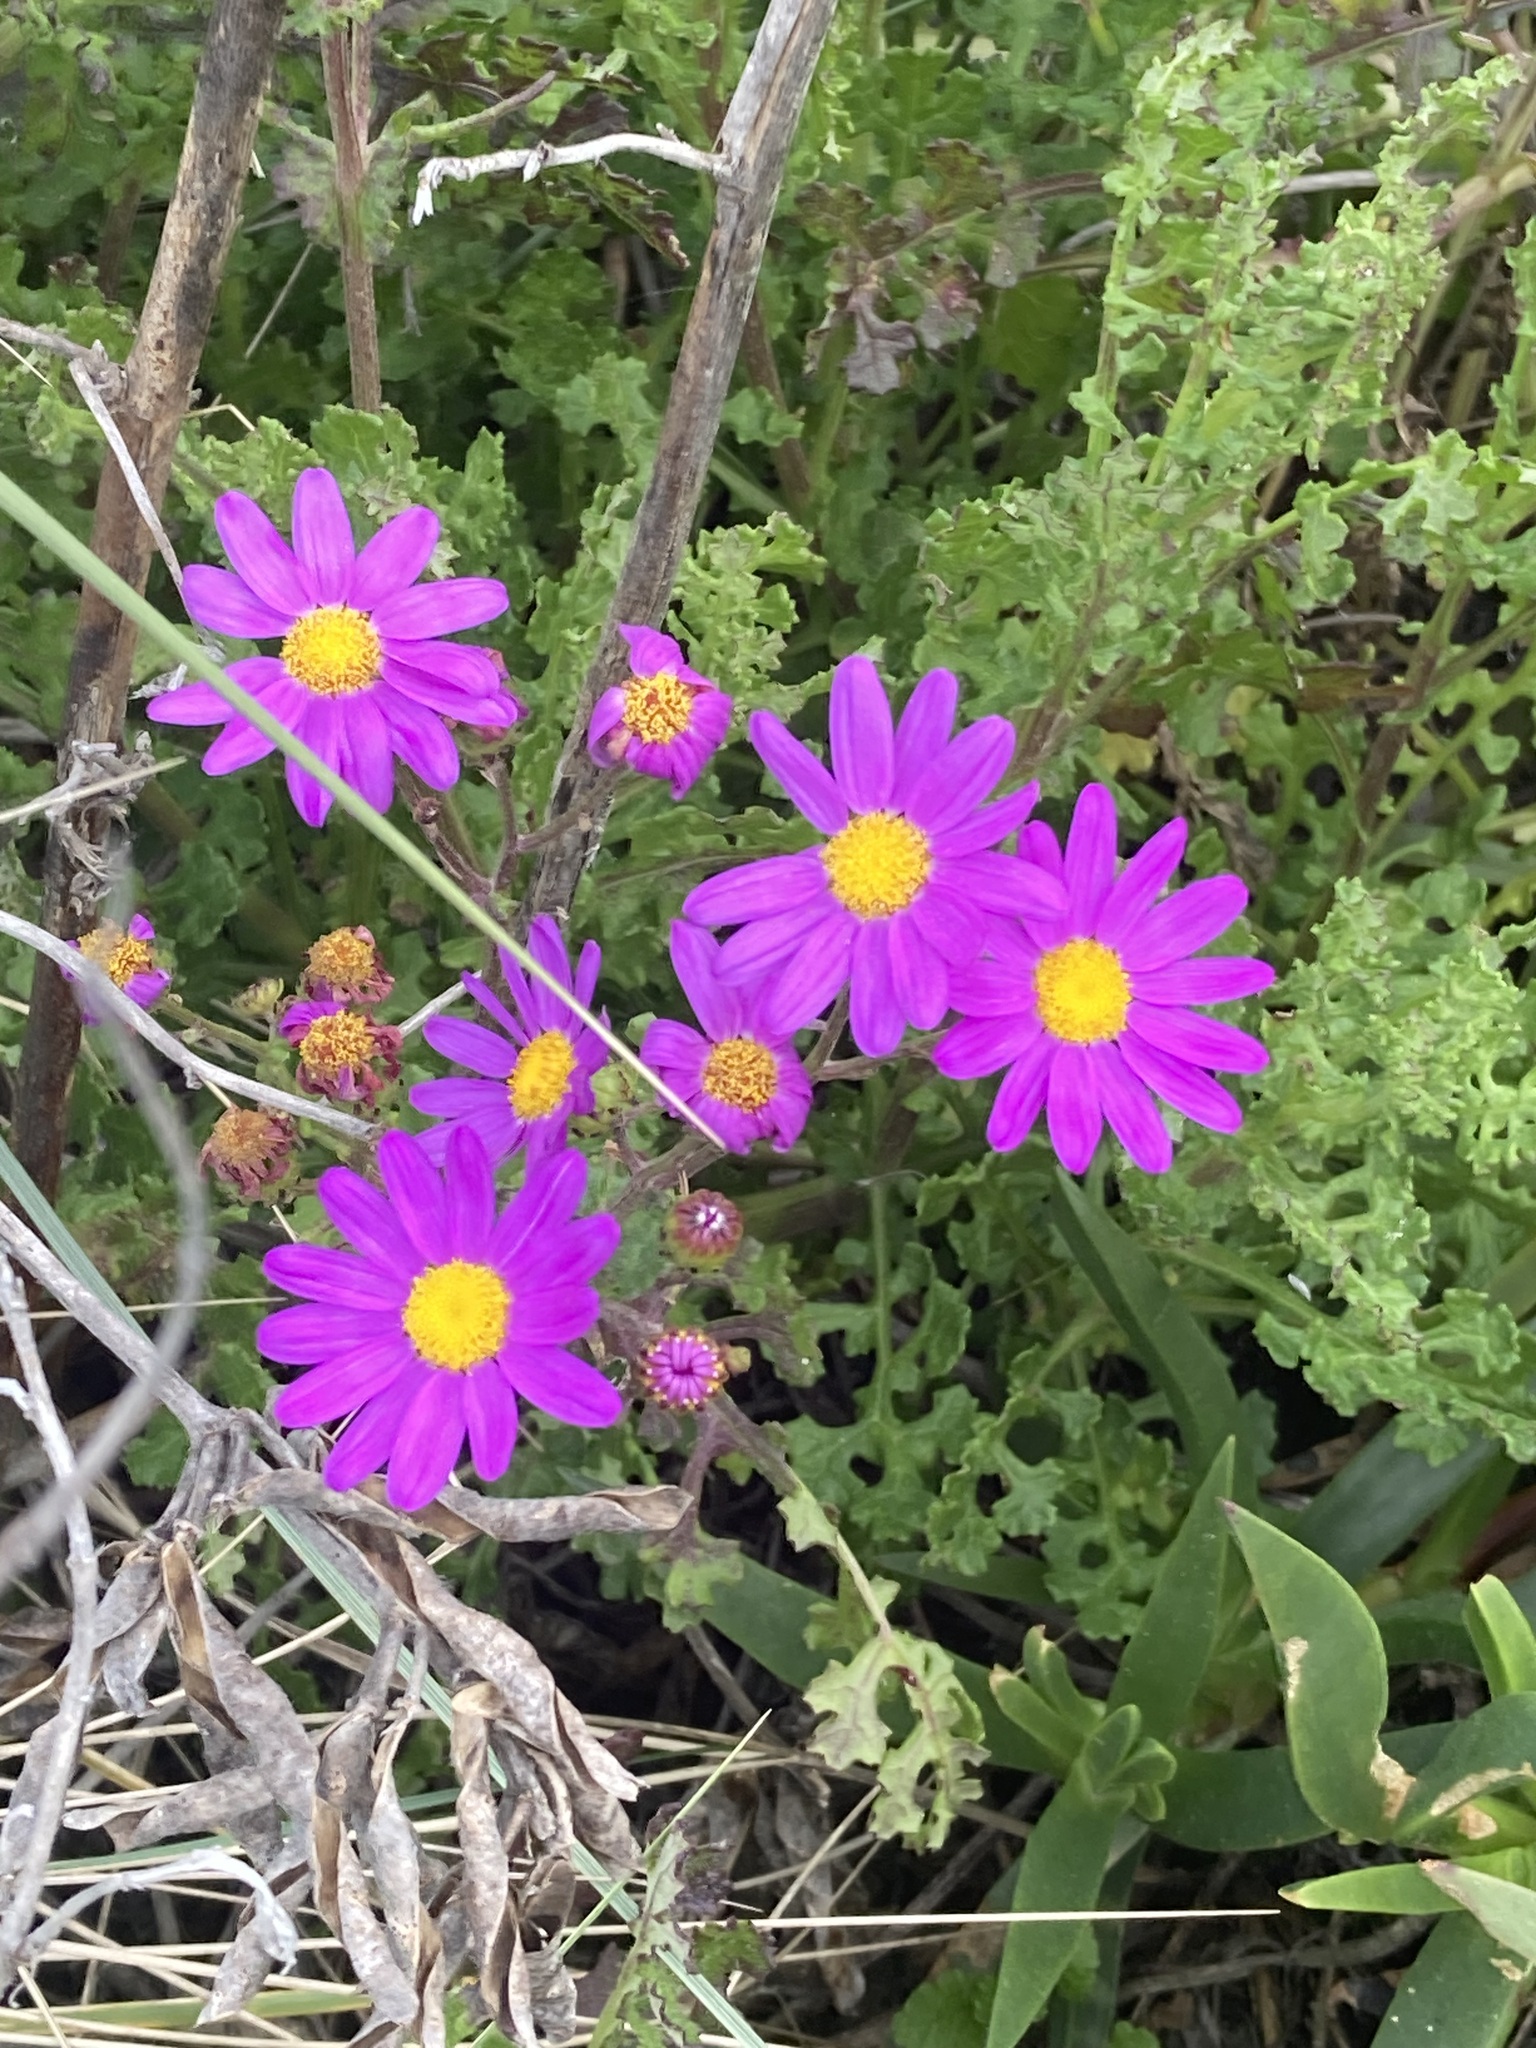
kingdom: Plantae
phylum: Tracheophyta
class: Magnoliopsida
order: Asterales
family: Asteraceae
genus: Senecio
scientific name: Senecio elegans
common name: Purple groundsel
